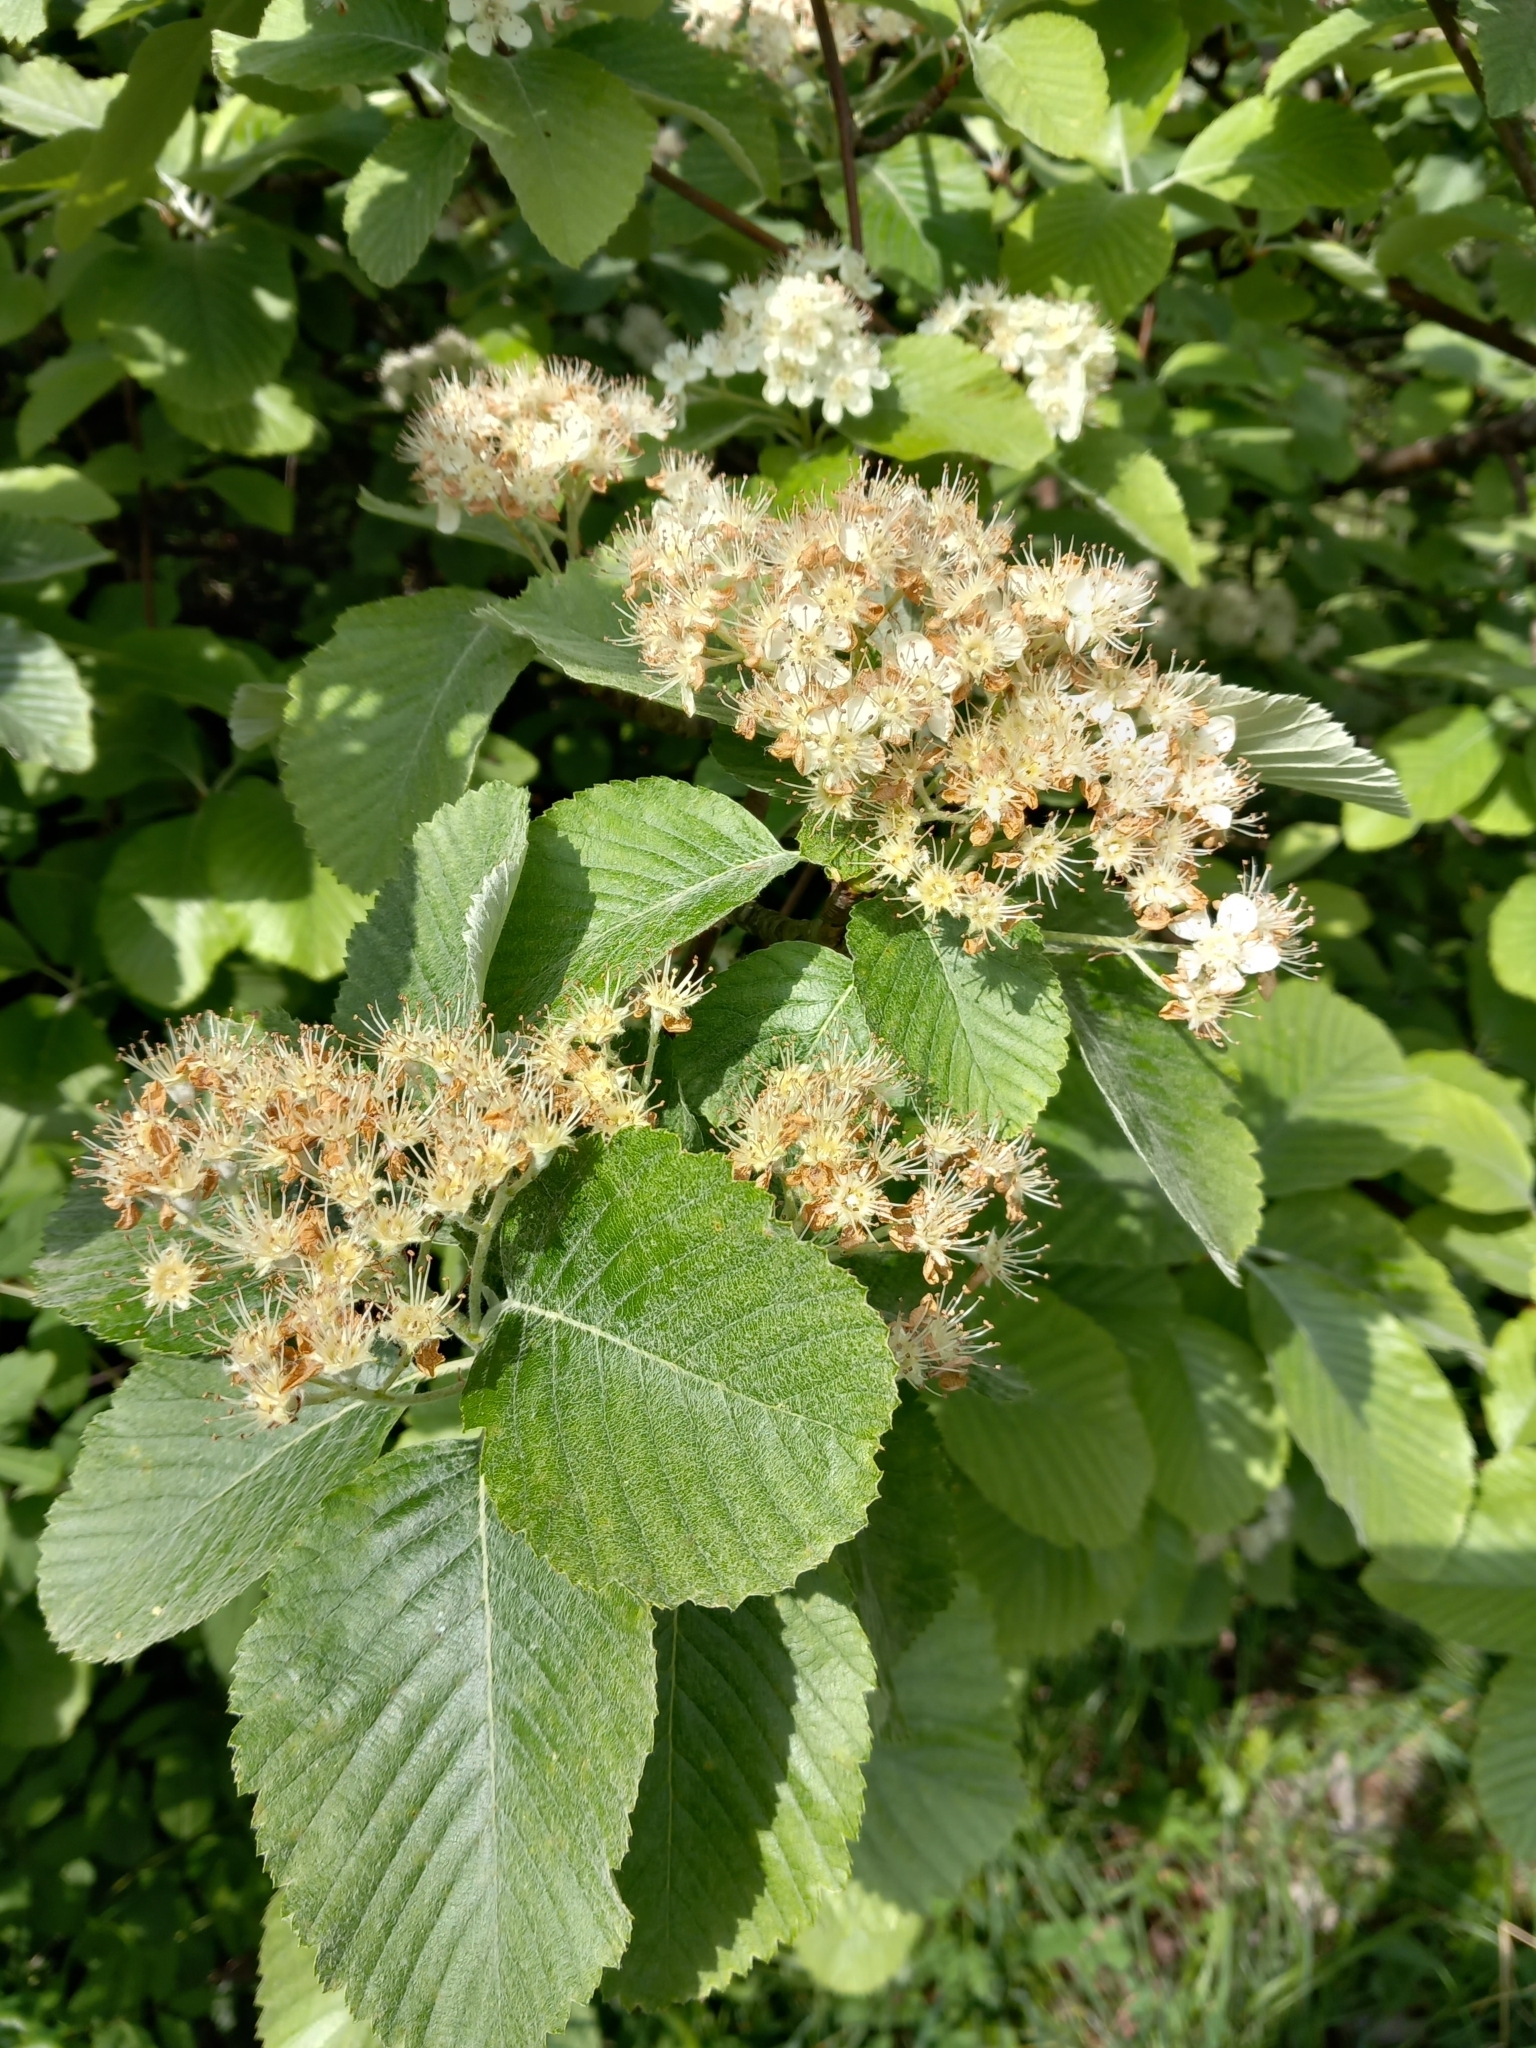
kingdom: Plantae
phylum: Tracheophyta
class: Magnoliopsida
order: Rosales
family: Rosaceae
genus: Aria
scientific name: Aria edulis
